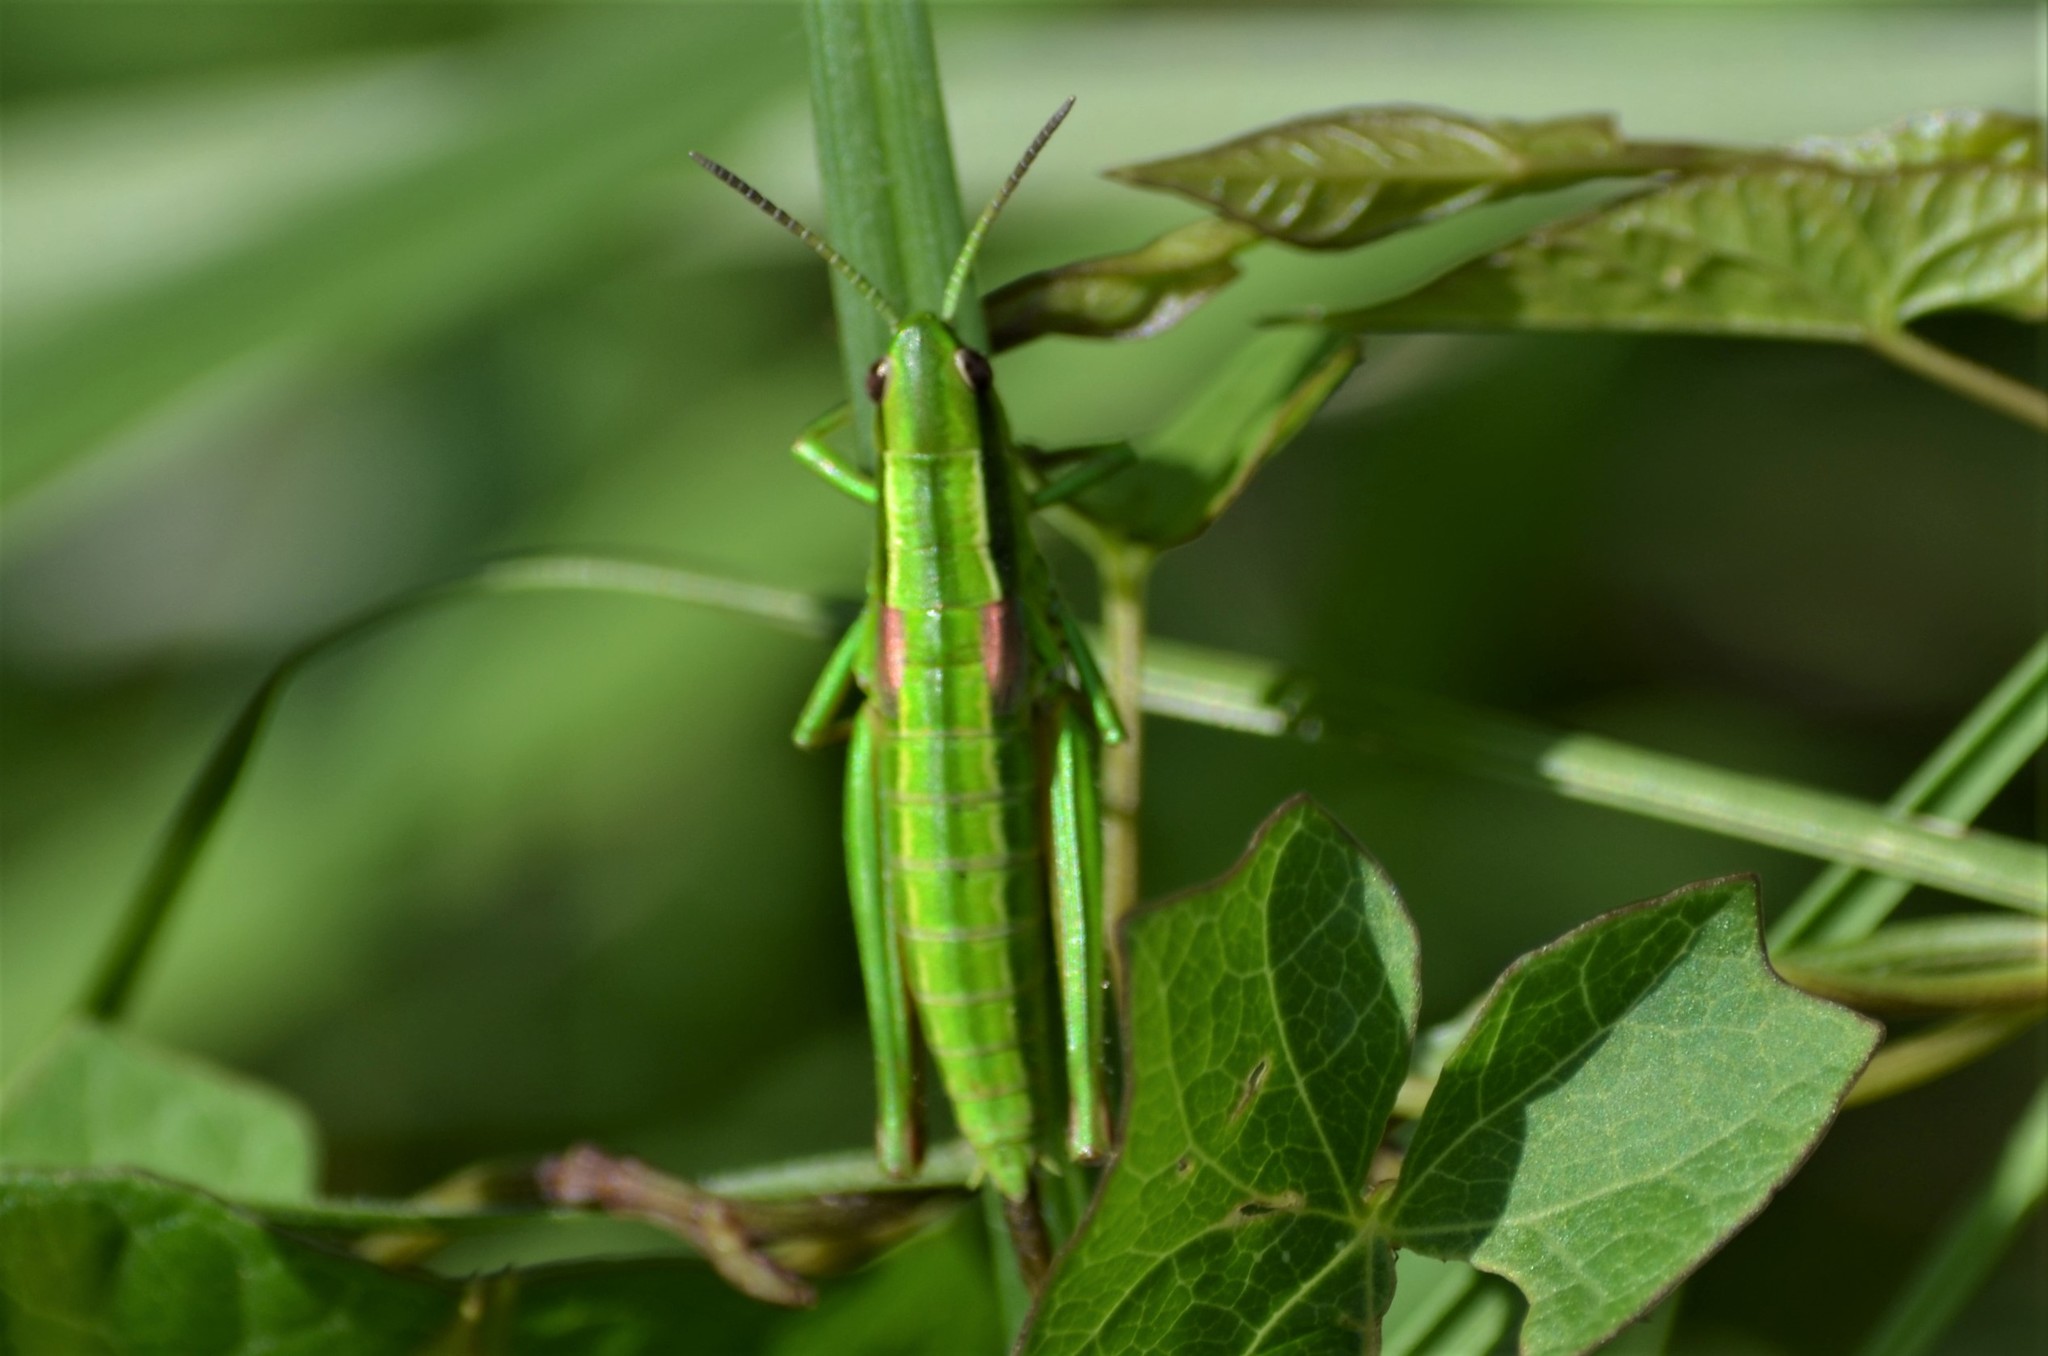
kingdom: Animalia
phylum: Arthropoda
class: Insecta
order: Orthoptera
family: Acrididae
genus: Euthystira
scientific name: Euthystira brachyptera
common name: Small gold grasshopper
